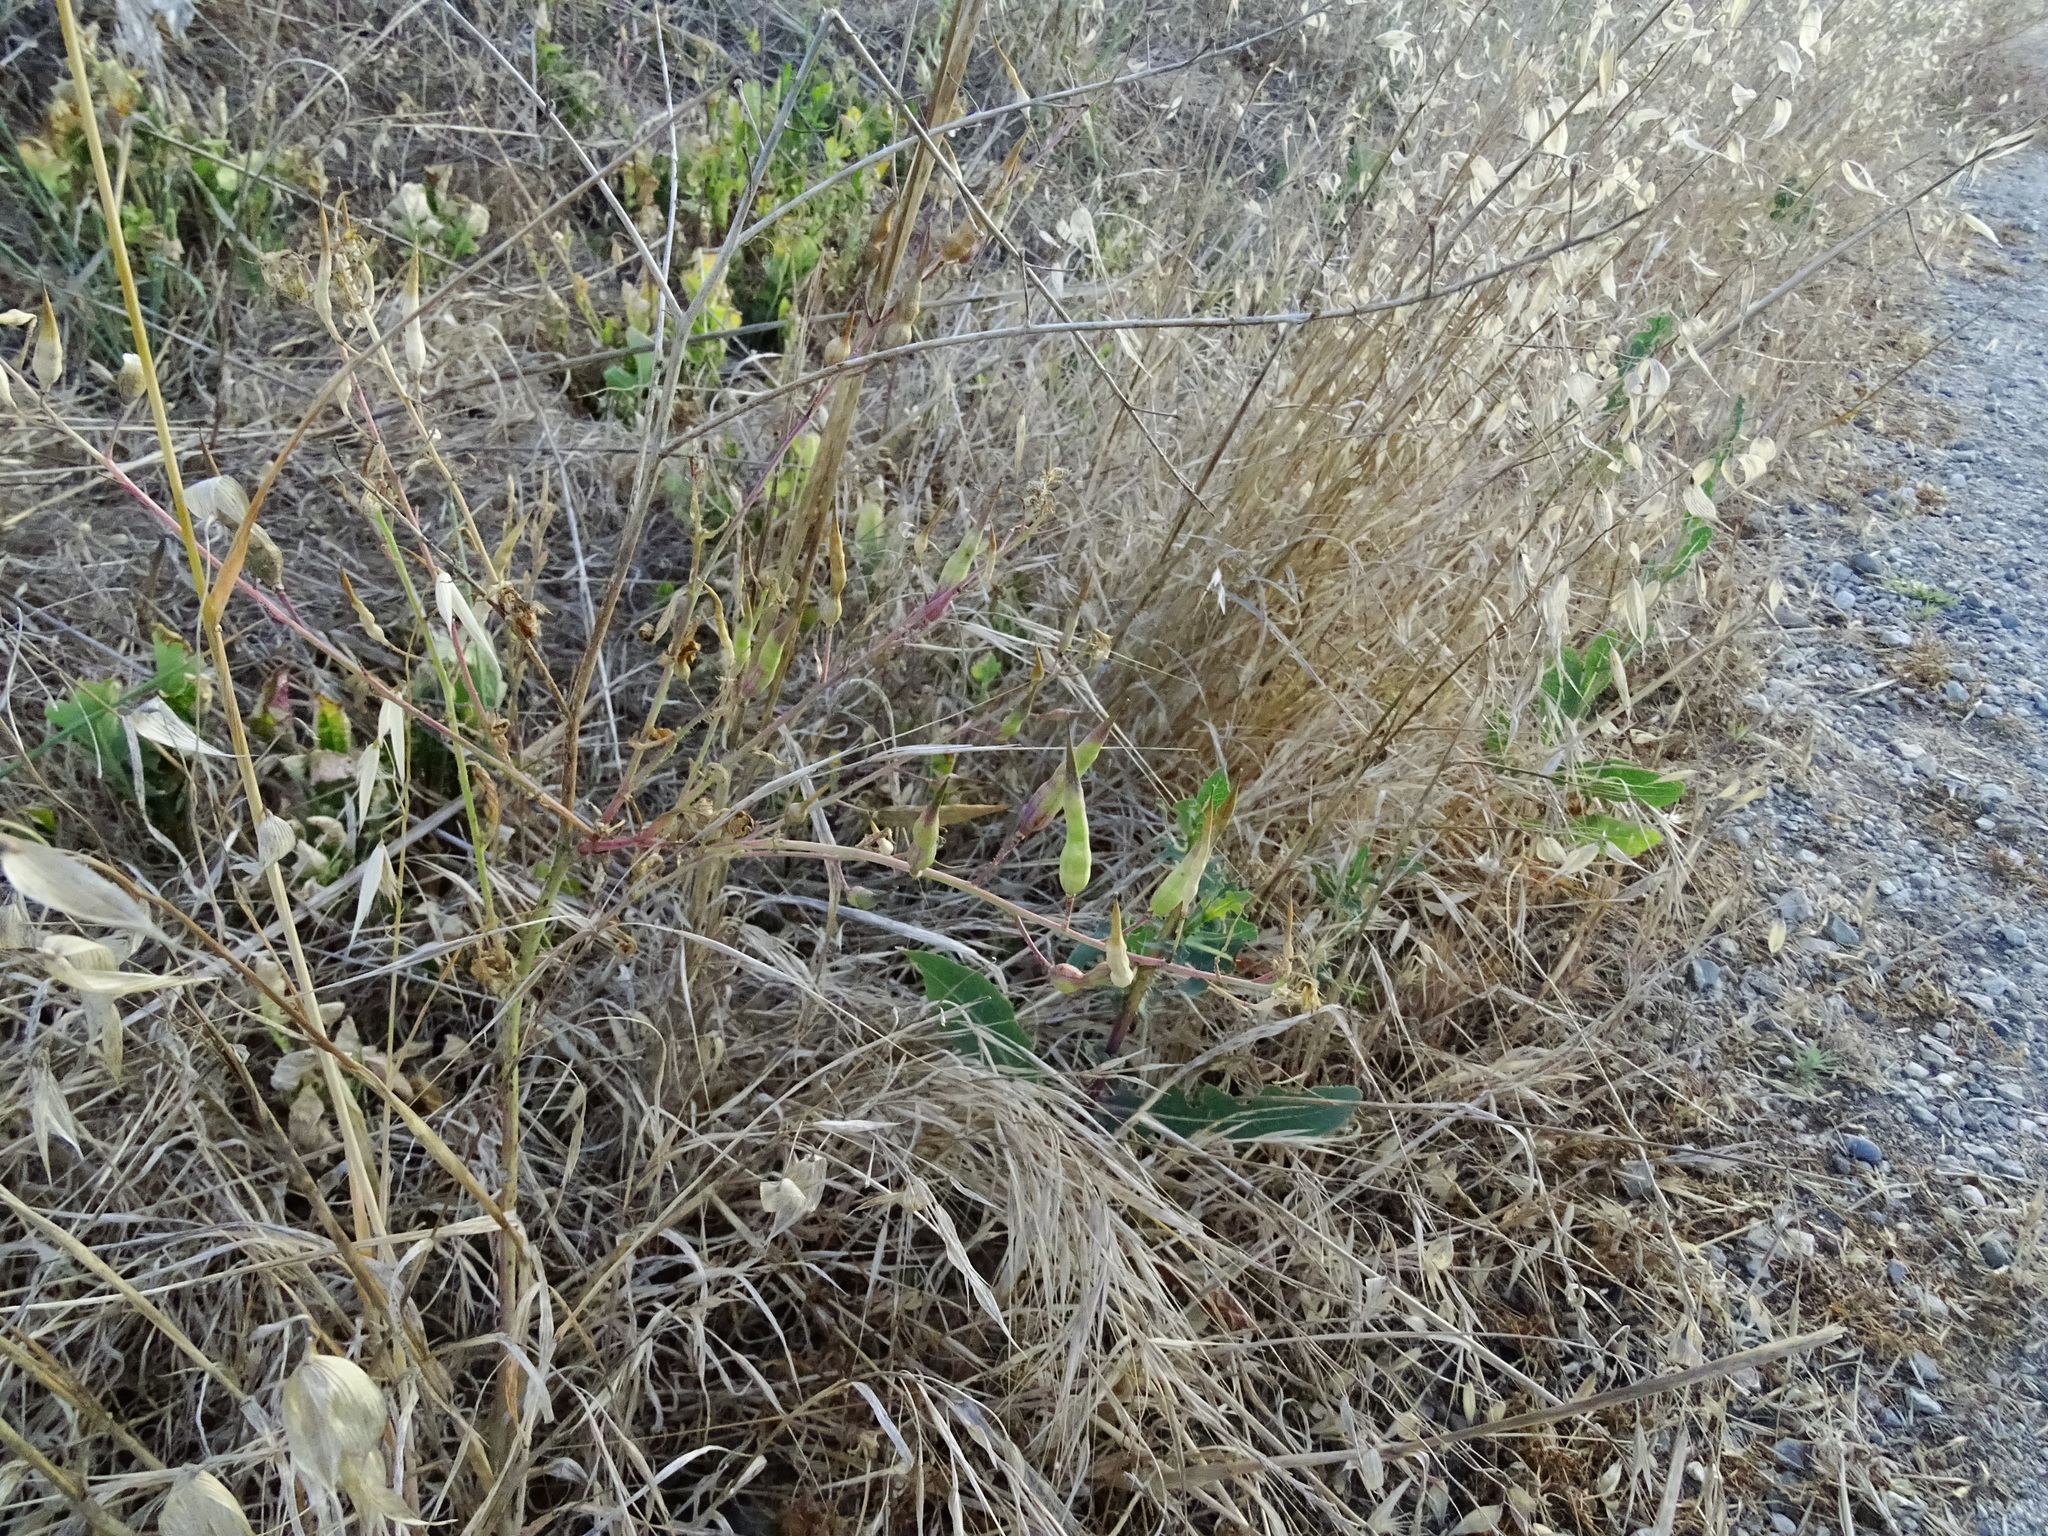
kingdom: Plantae
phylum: Tracheophyta
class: Magnoliopsida
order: Brassicales
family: Brassicaceae
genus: Raphanus
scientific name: Raphanus sativus
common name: Cultivated radish
